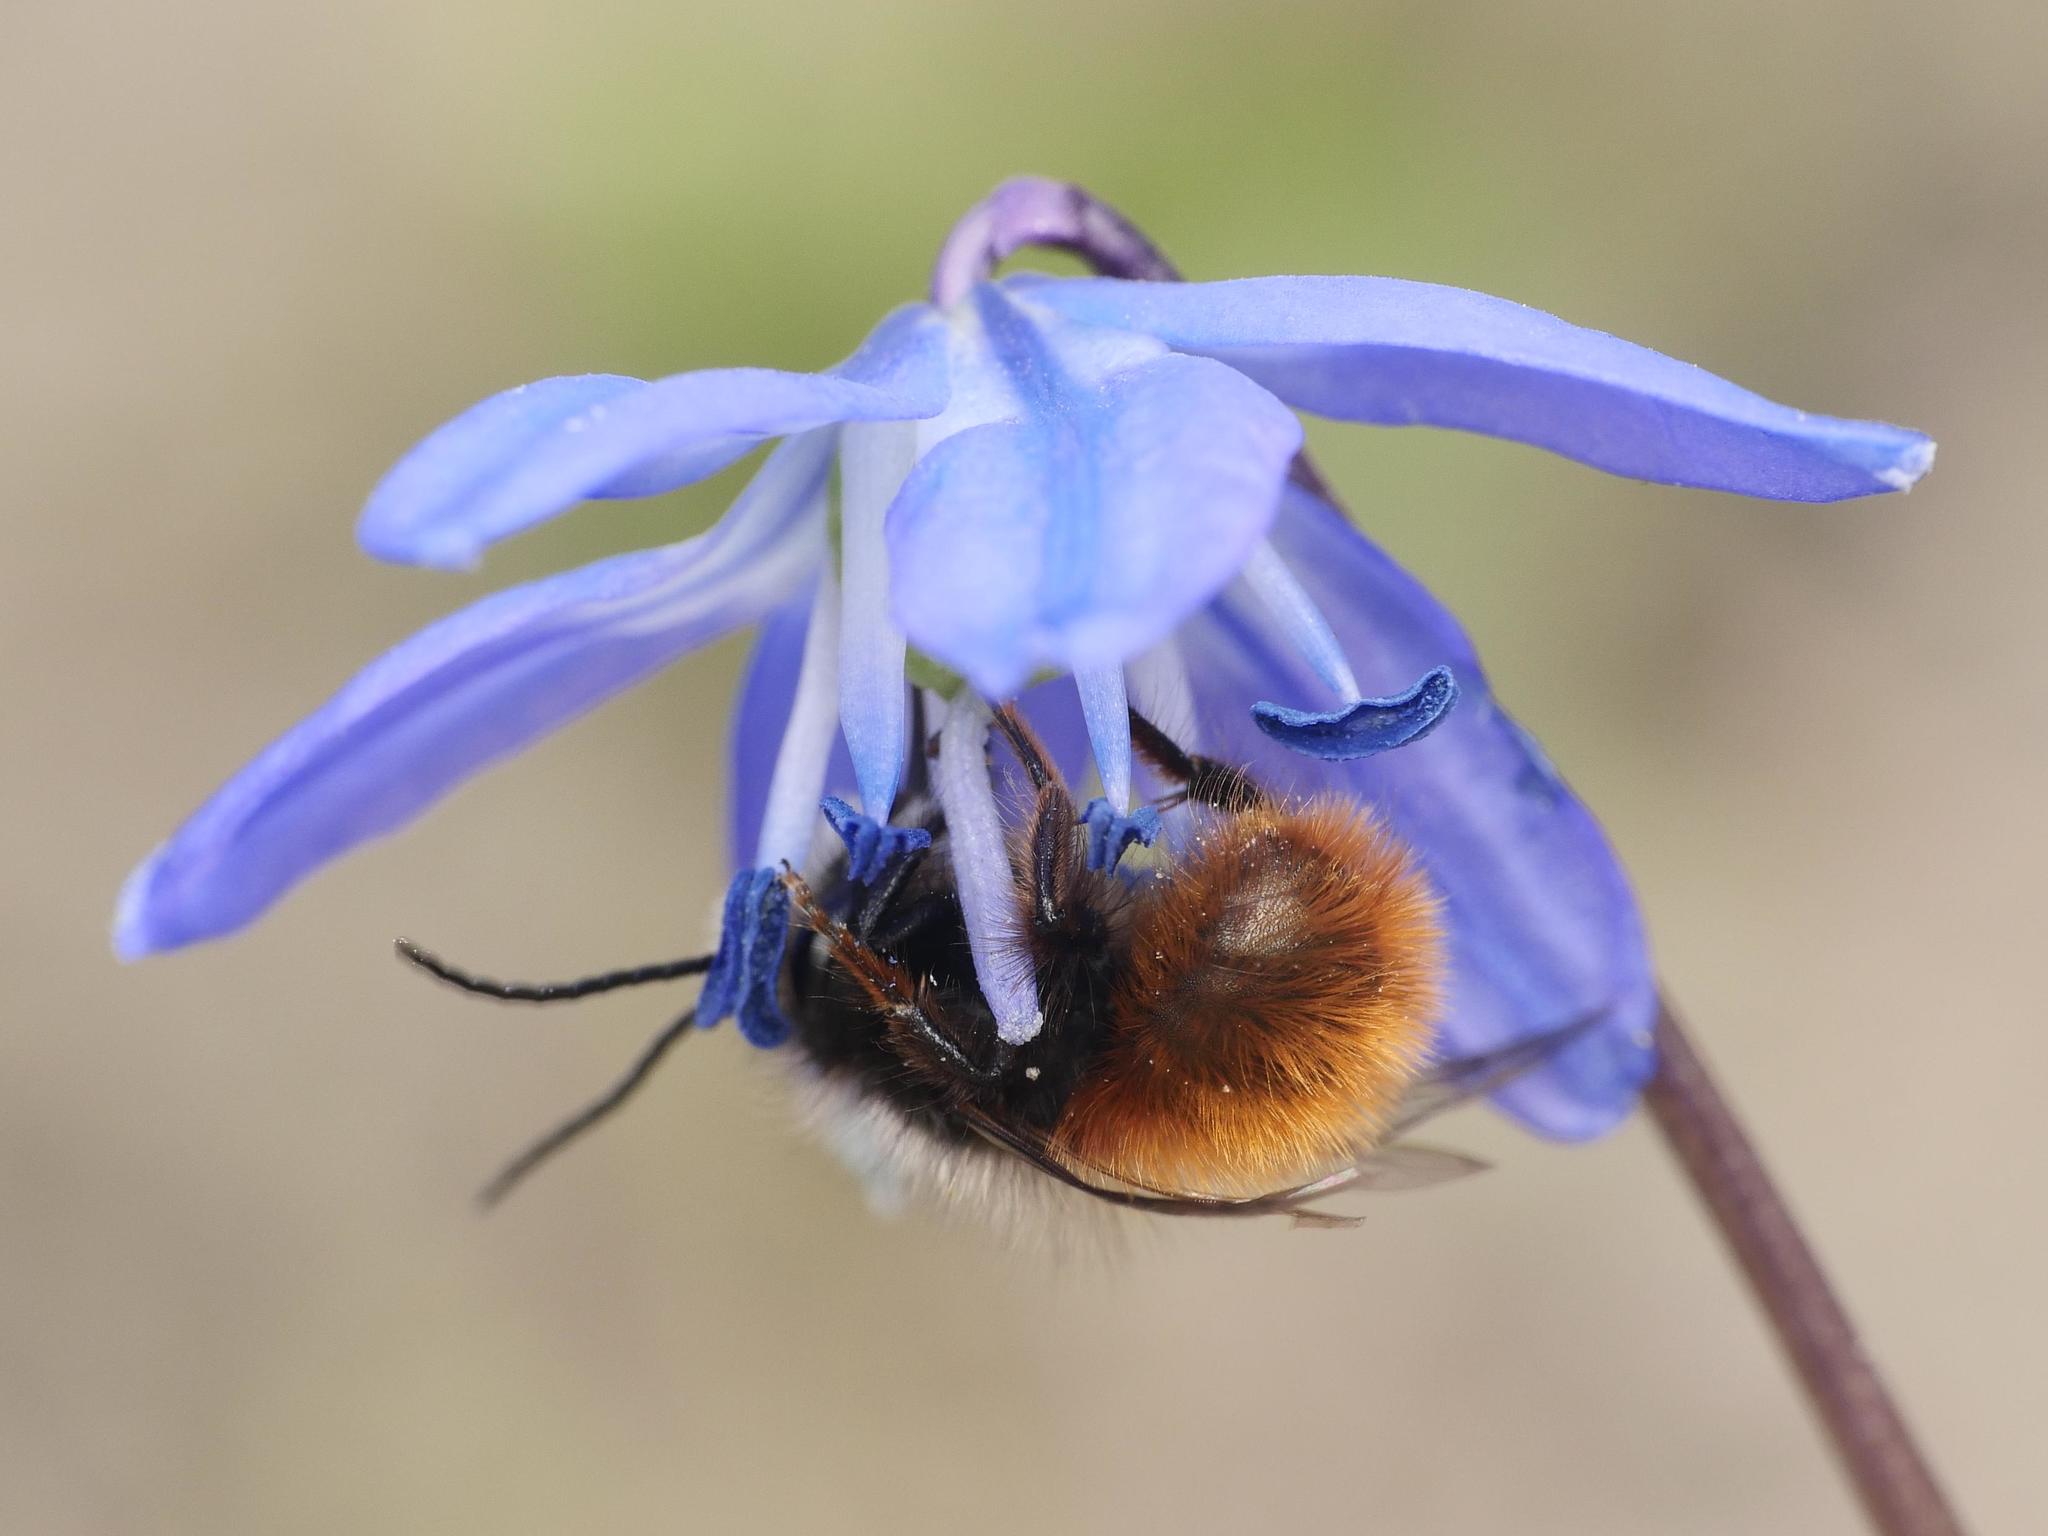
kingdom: Animalia
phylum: Arthropoda
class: Insecta
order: Hymenoptera
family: Megachilidae
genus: Osmia
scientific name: Osmia cornuta
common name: Mason bee
